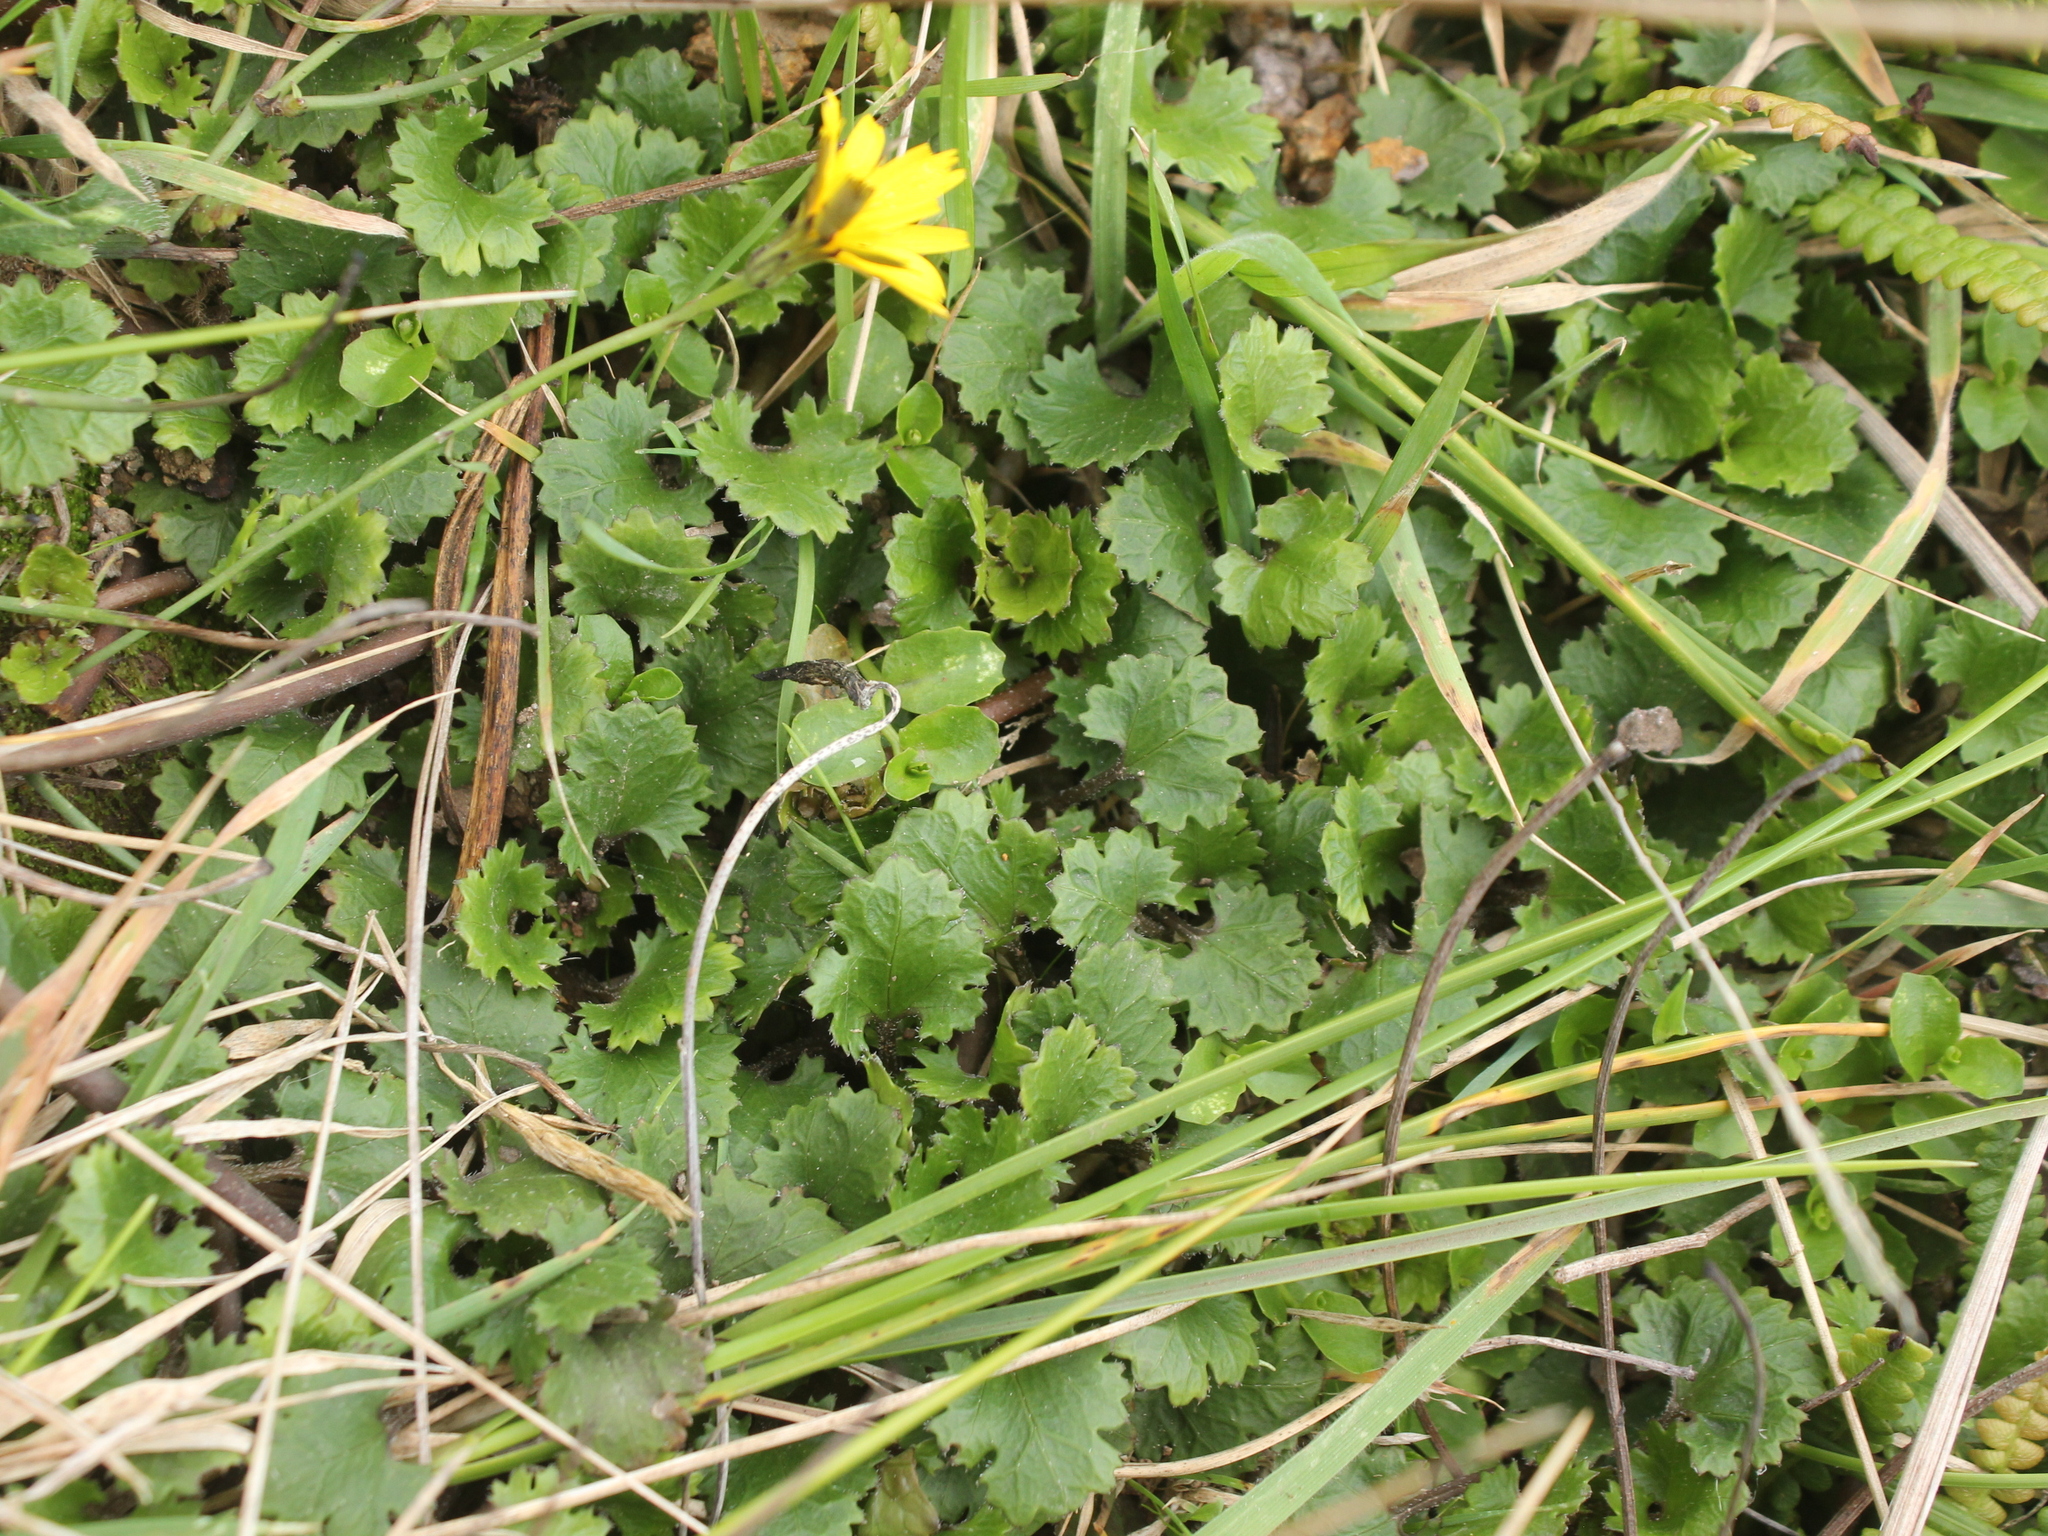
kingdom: Plantae
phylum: Tracheophyta
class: Magnoliopsida
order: Gunnerales
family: Gunneraceae
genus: Gunnera
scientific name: Gunnera monoica
